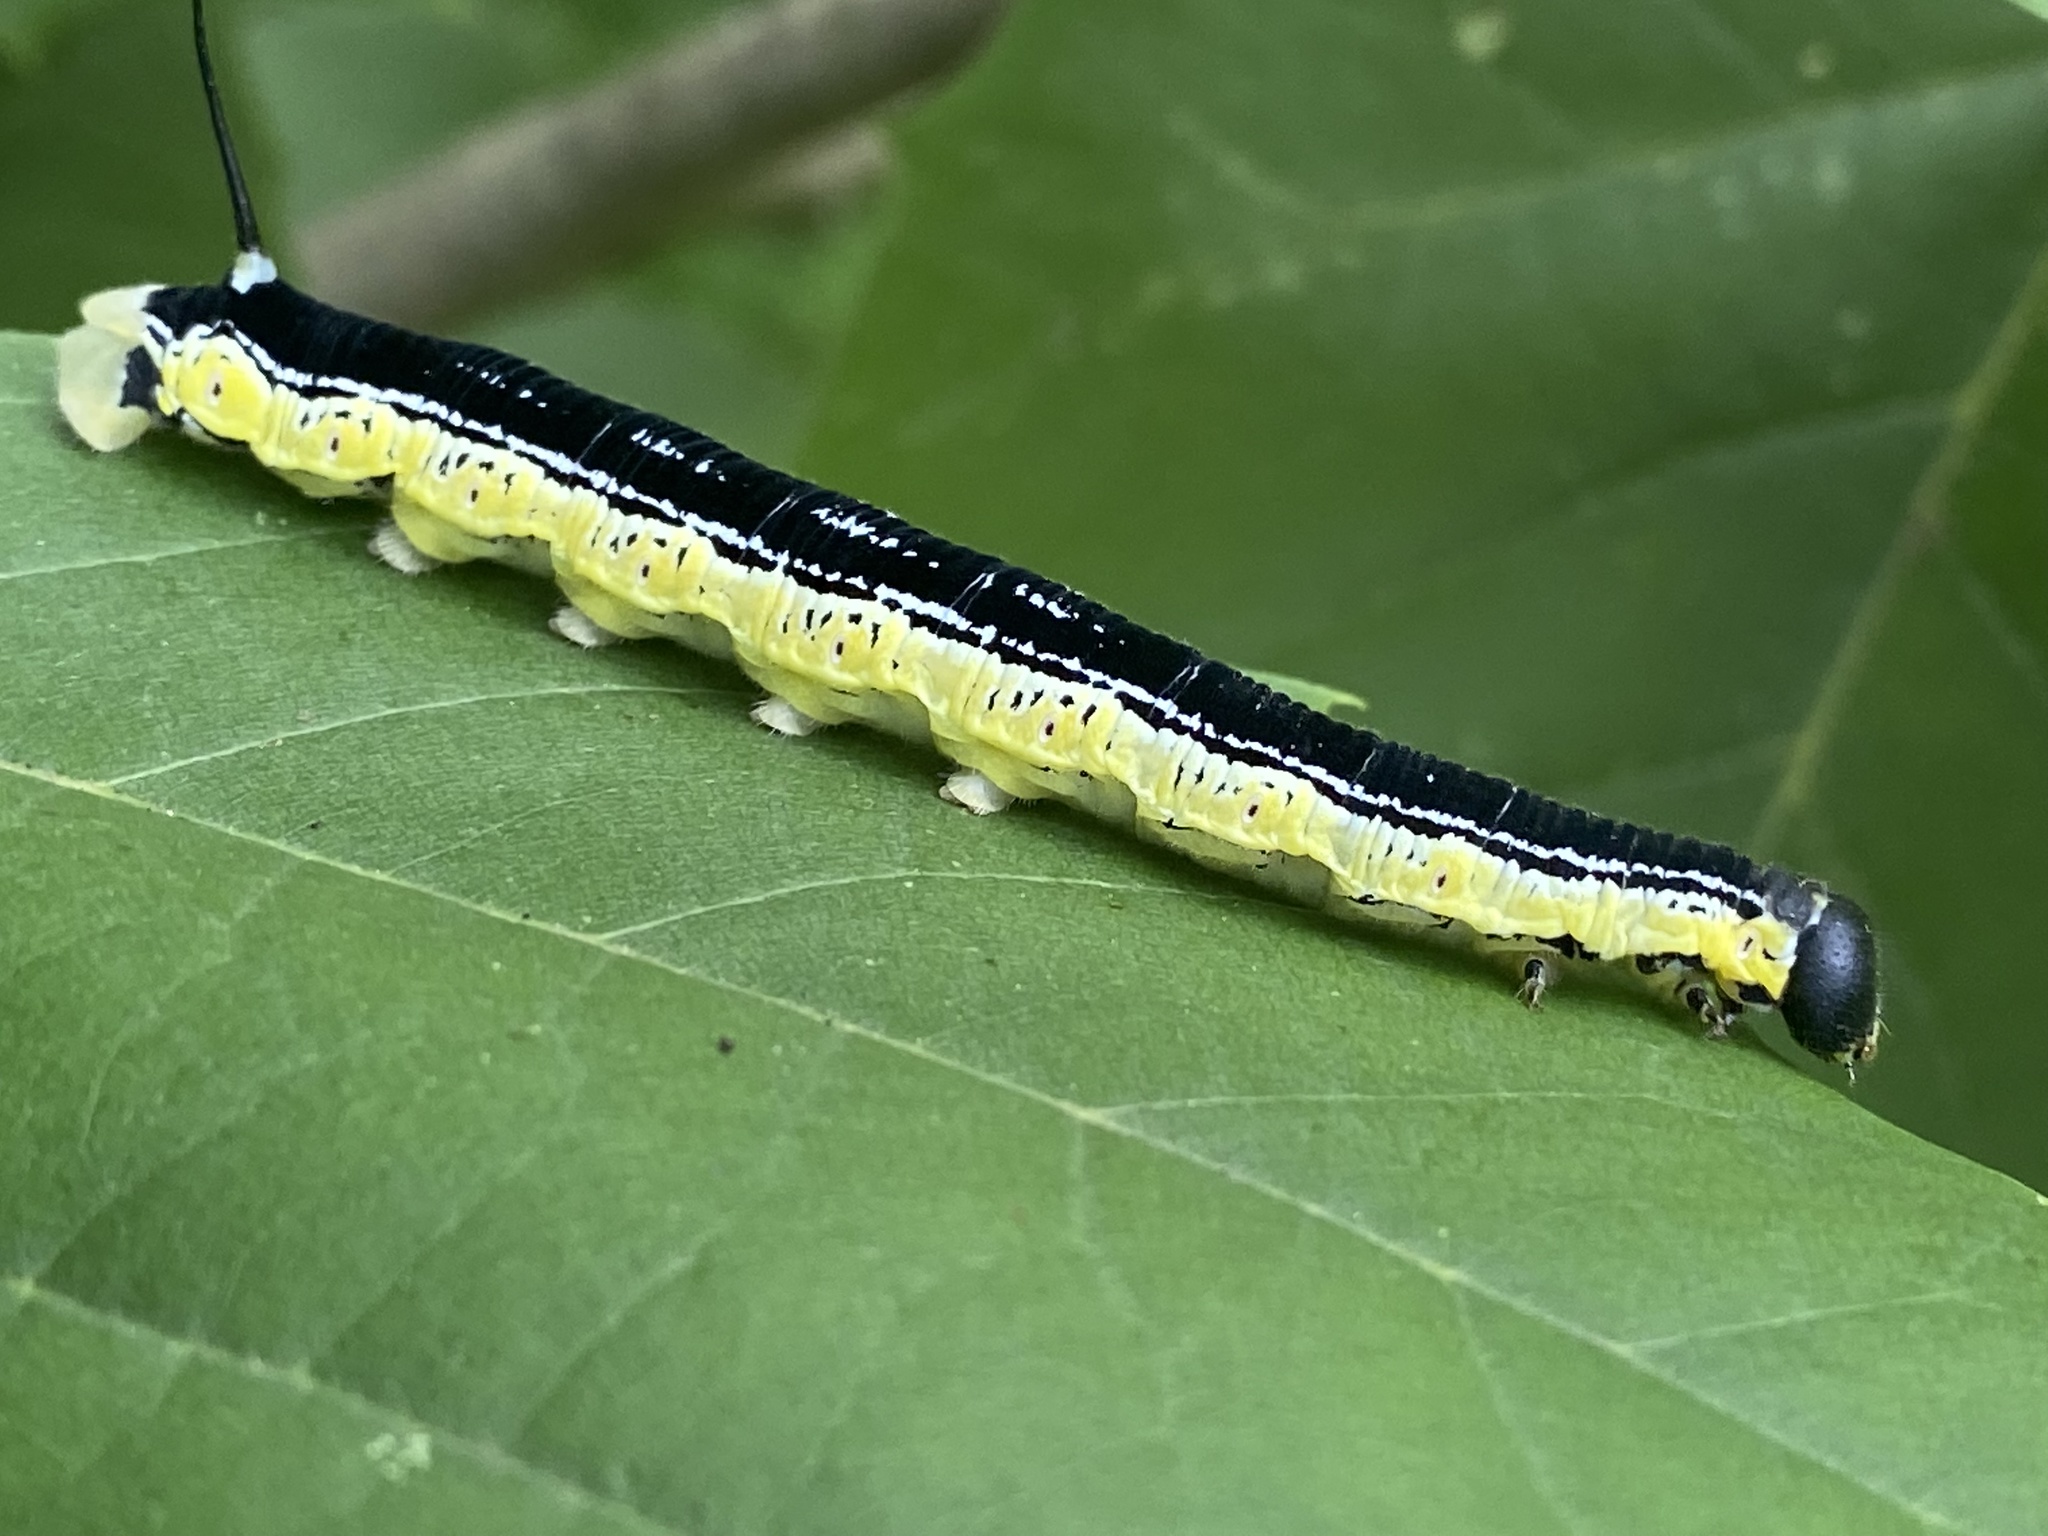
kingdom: Animalia
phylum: Arthropoda
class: Insecta
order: Lepidoptera
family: Sphingidae
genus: Ceratomia
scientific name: Ceratomia catalpae
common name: Catalpa hornworm
